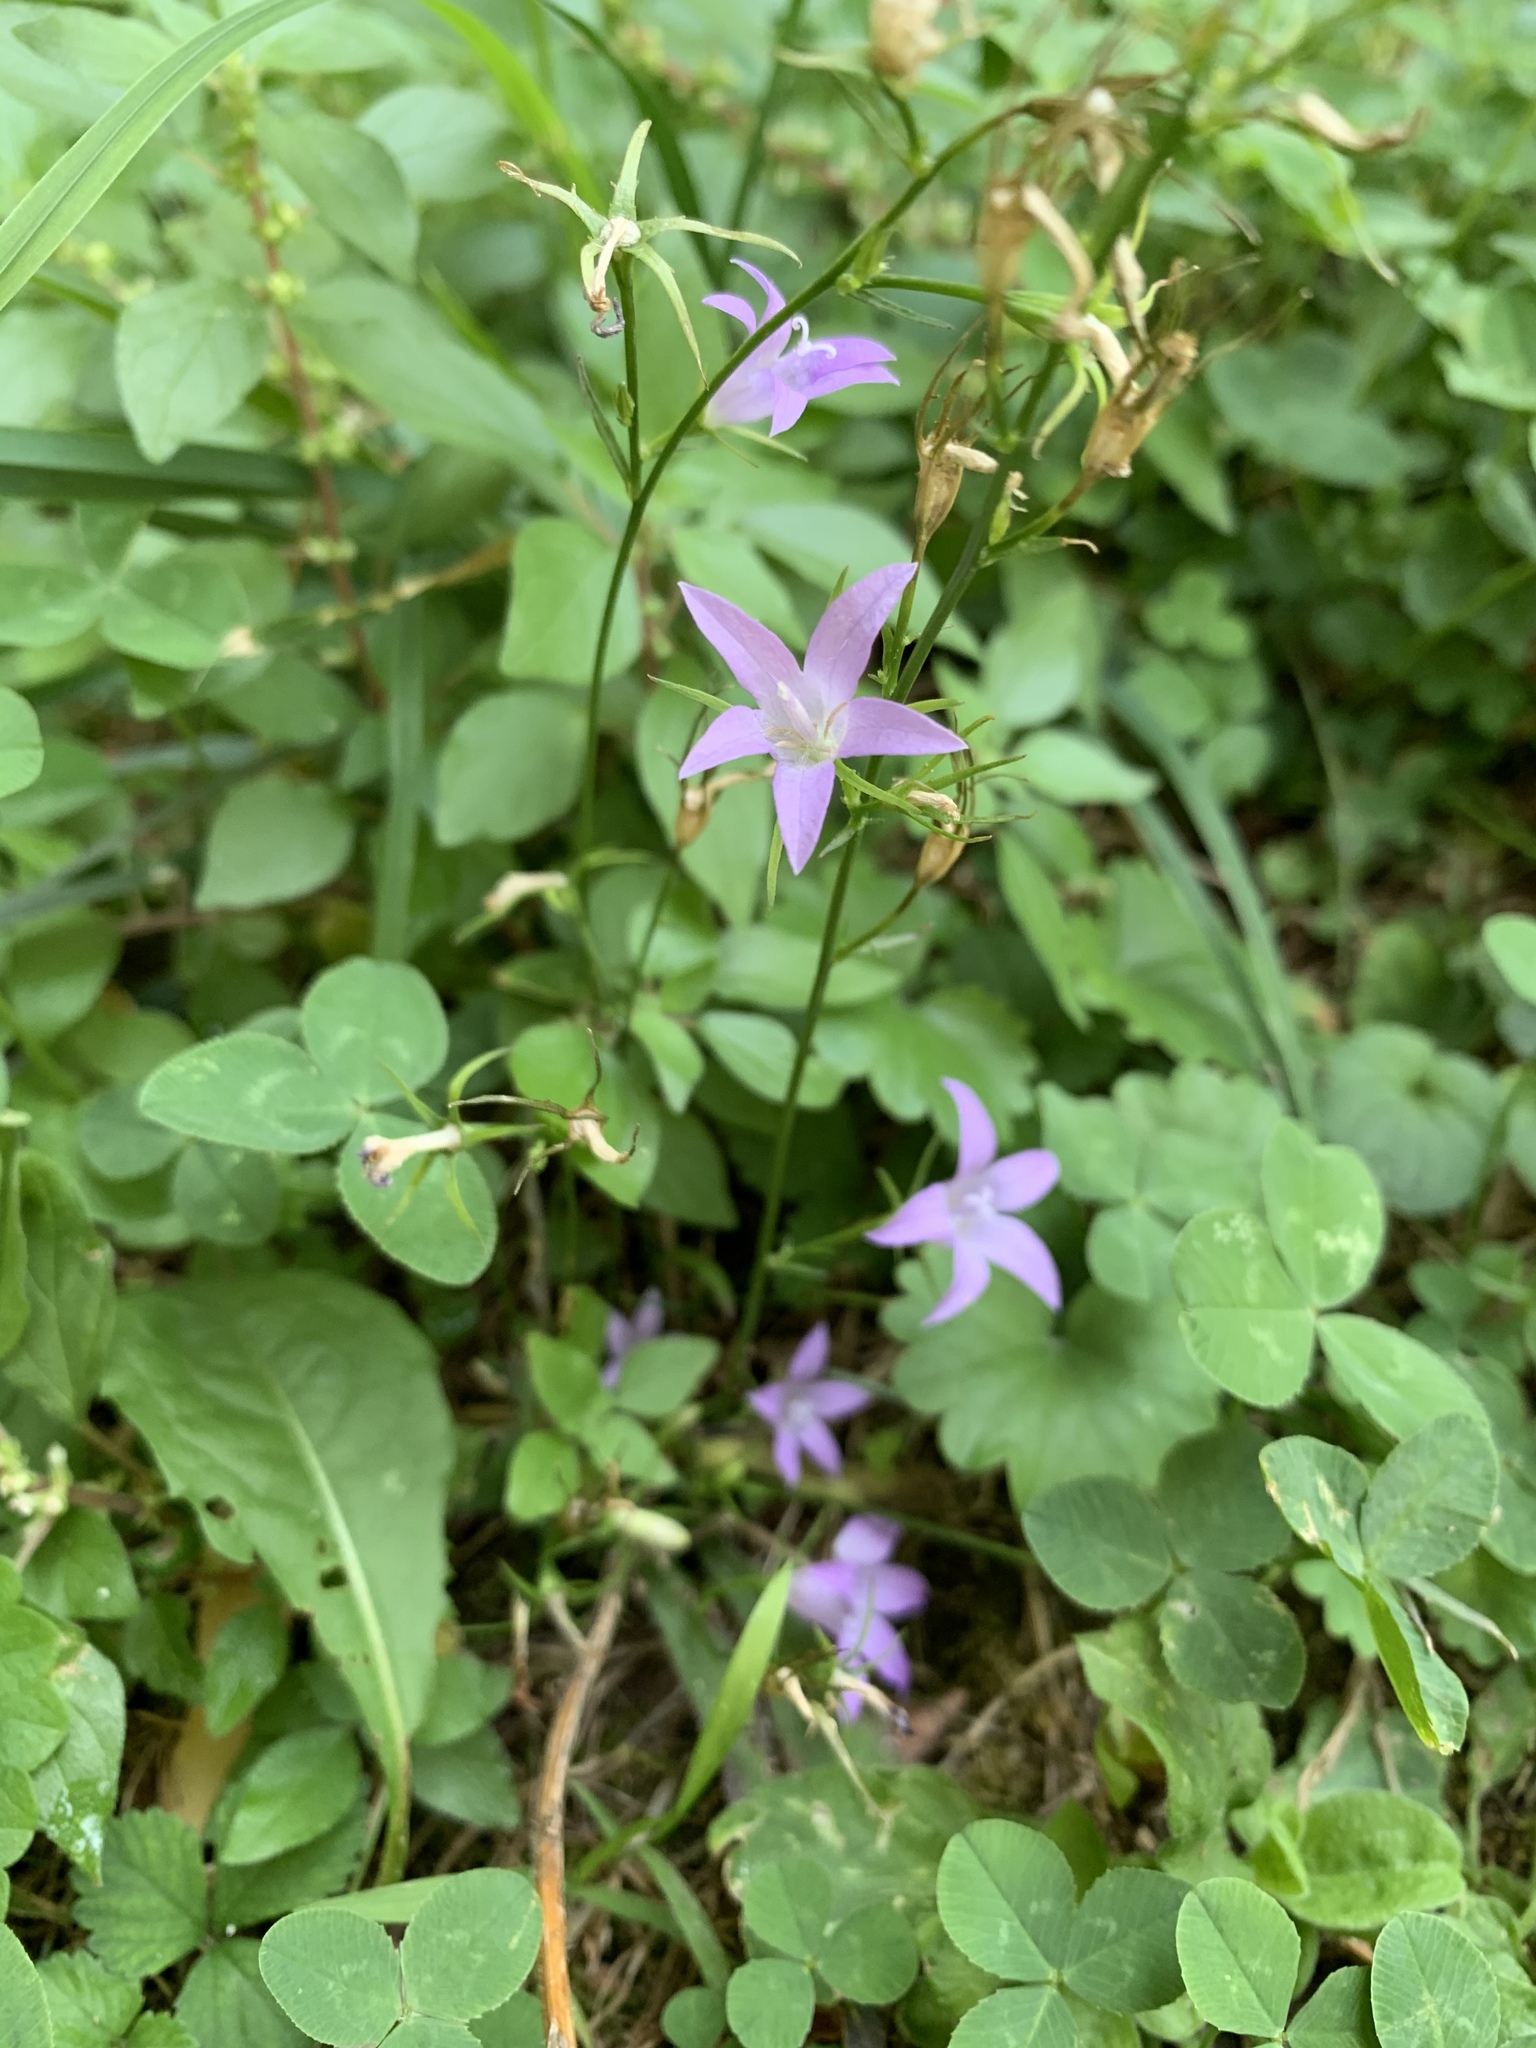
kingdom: Plantae
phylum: Tracheophyta
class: Magnoliopsida
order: Asterales
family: Campanulaceae
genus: Campanula
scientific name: Campanula rapunculus
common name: Rampion bellflower
